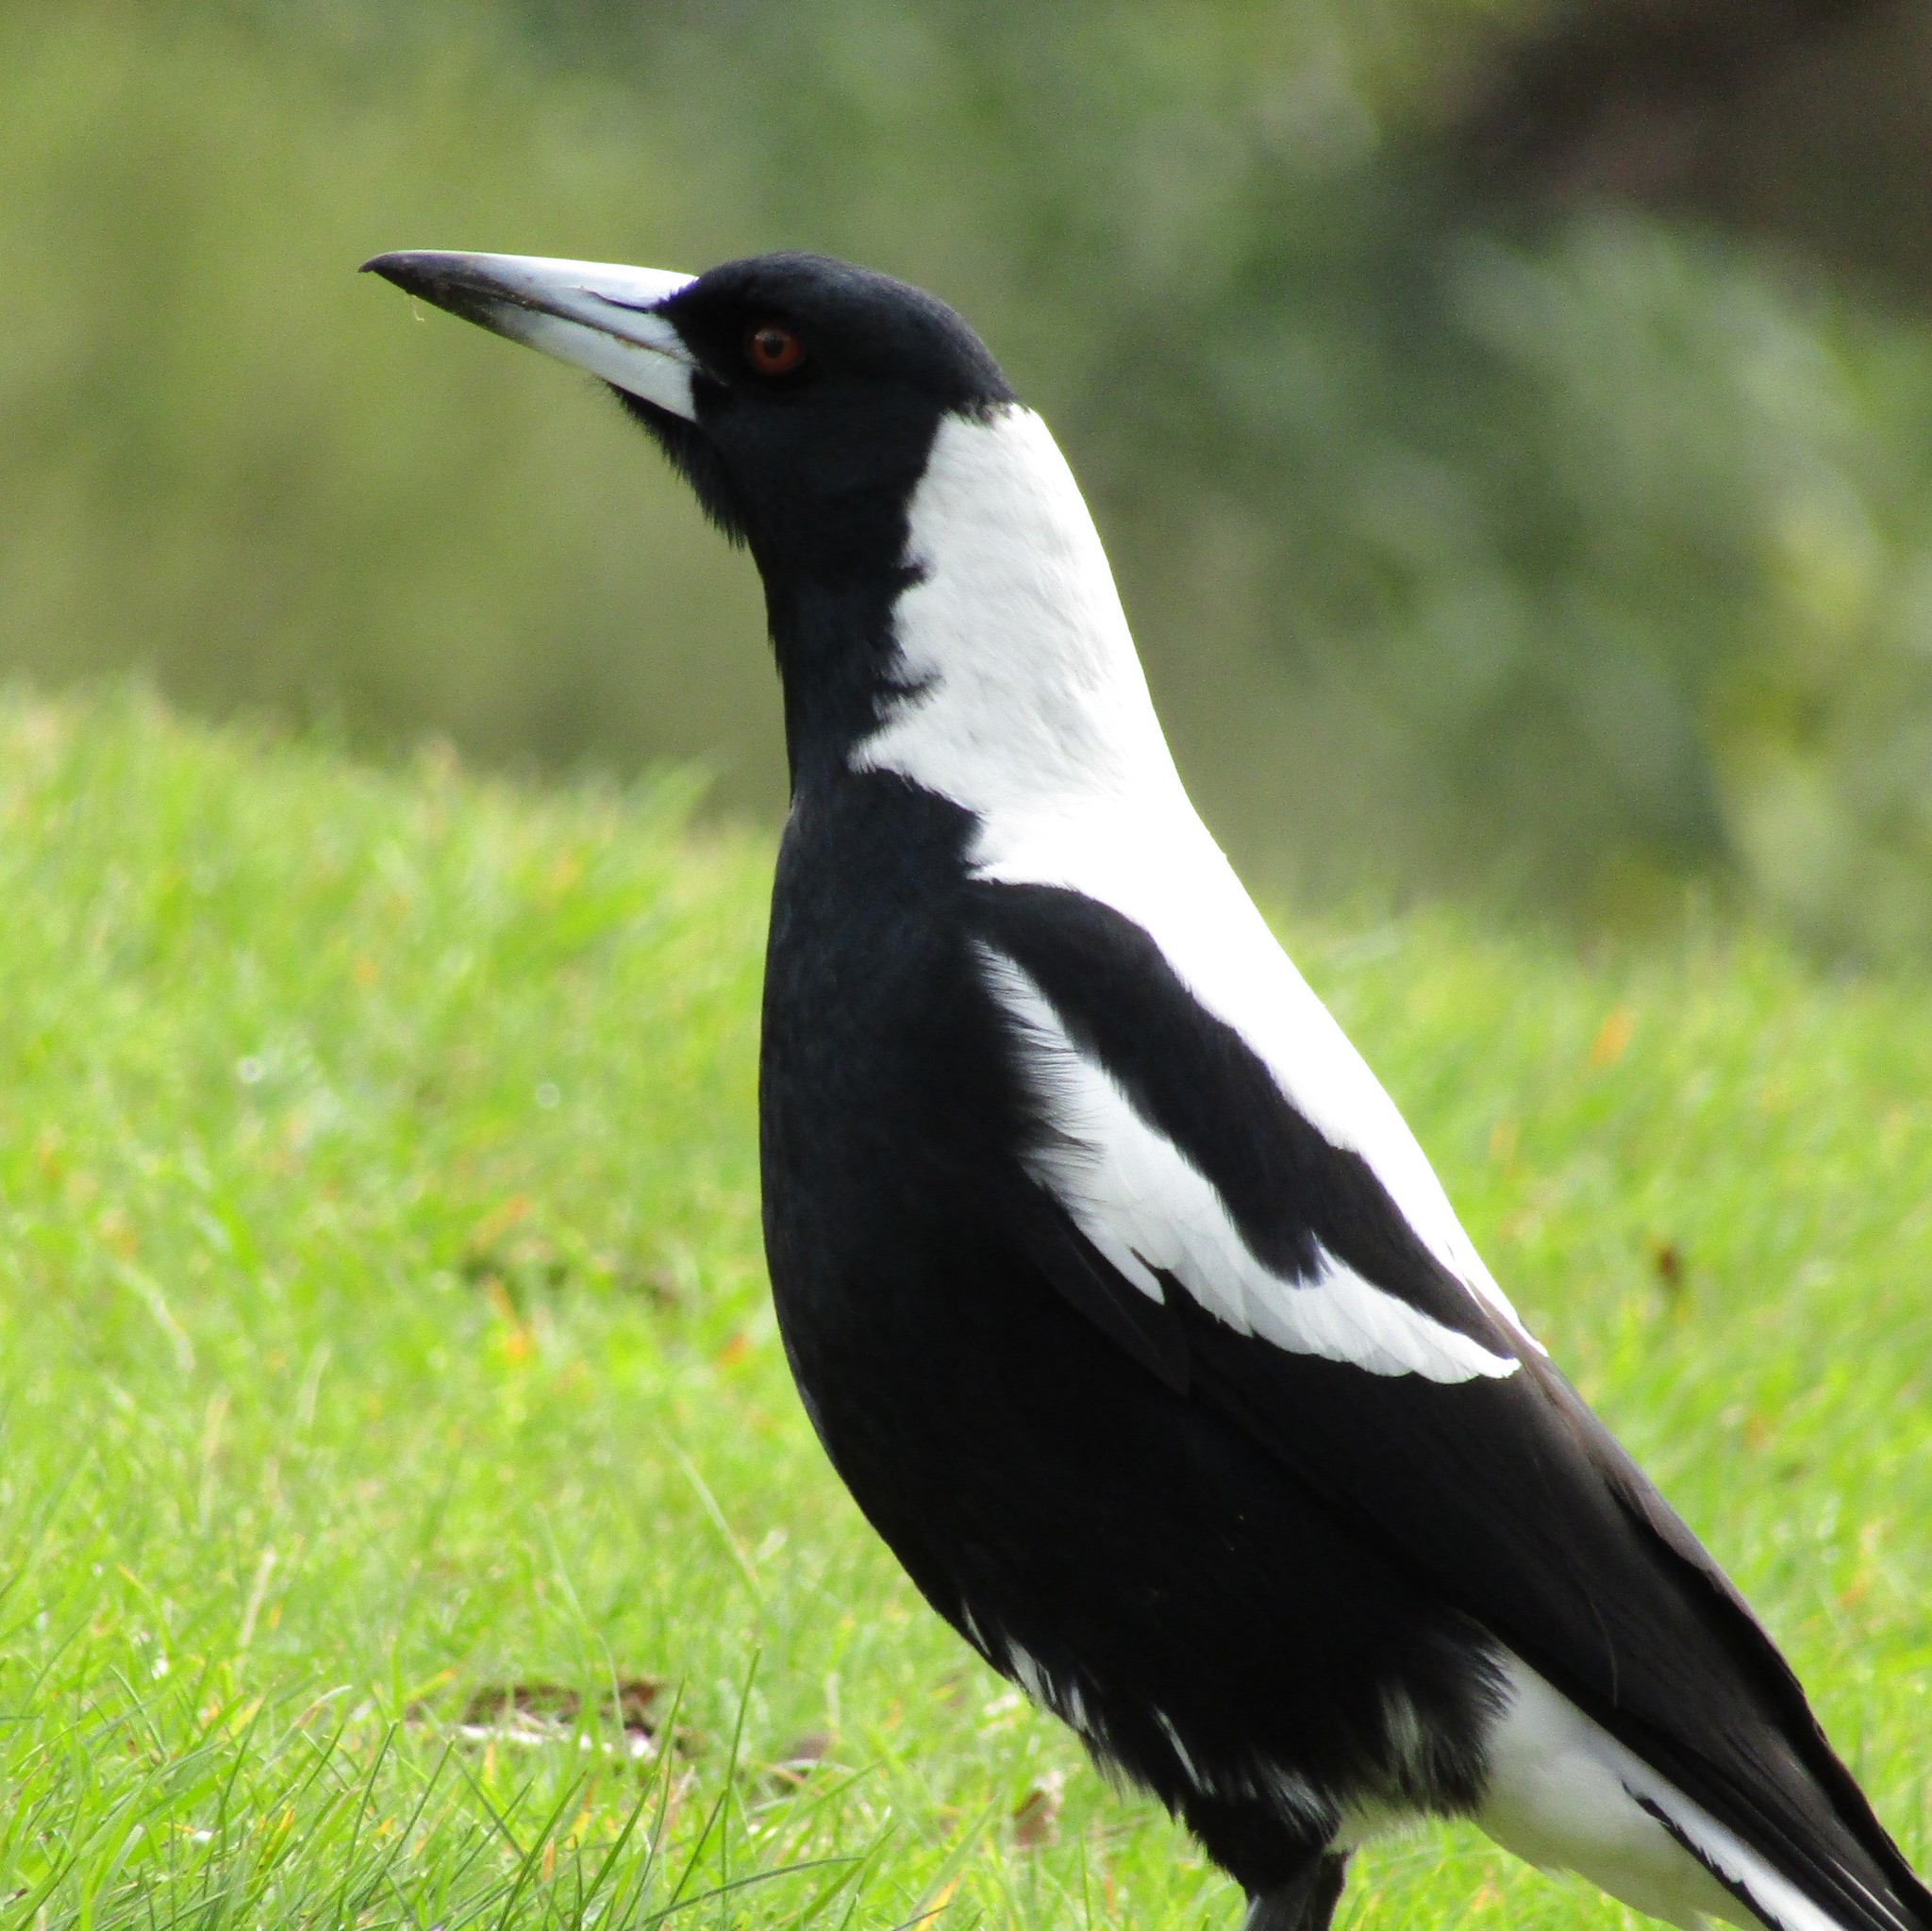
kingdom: Animalia
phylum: Chordata
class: Aves
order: Passeriformes
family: Cracticidae
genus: Gymnorhina
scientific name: Gymnorhina tibicen
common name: Australian magpie
